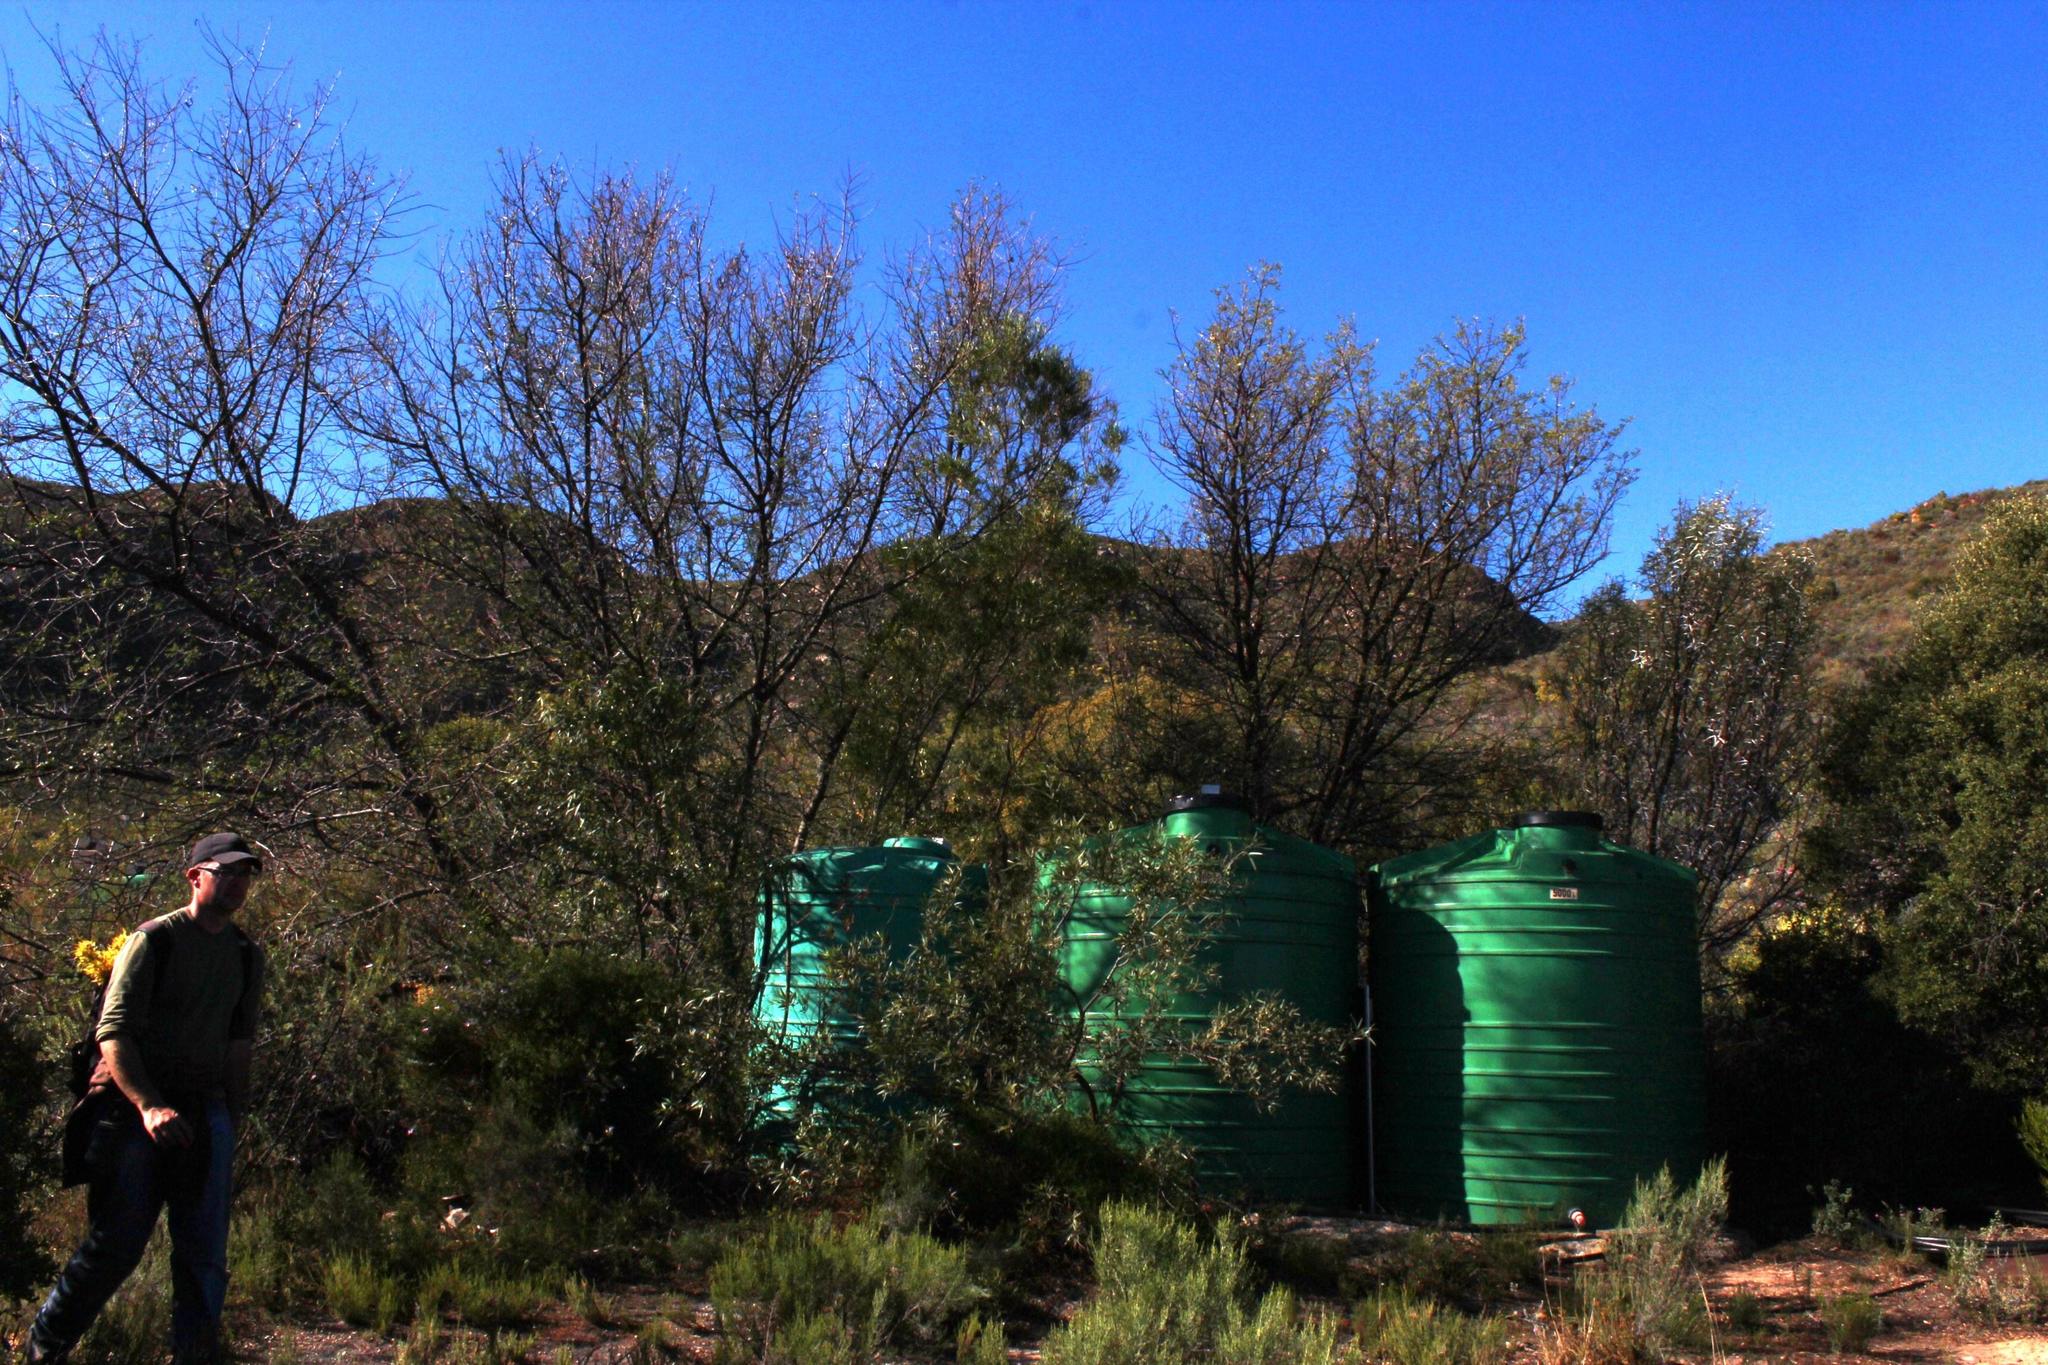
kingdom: Plantae
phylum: Tracheophyta
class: Magnoliopsida
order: Fabales
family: Fabaceae
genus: Vachellia
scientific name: Vachellia karroo
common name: Sweet thorn
